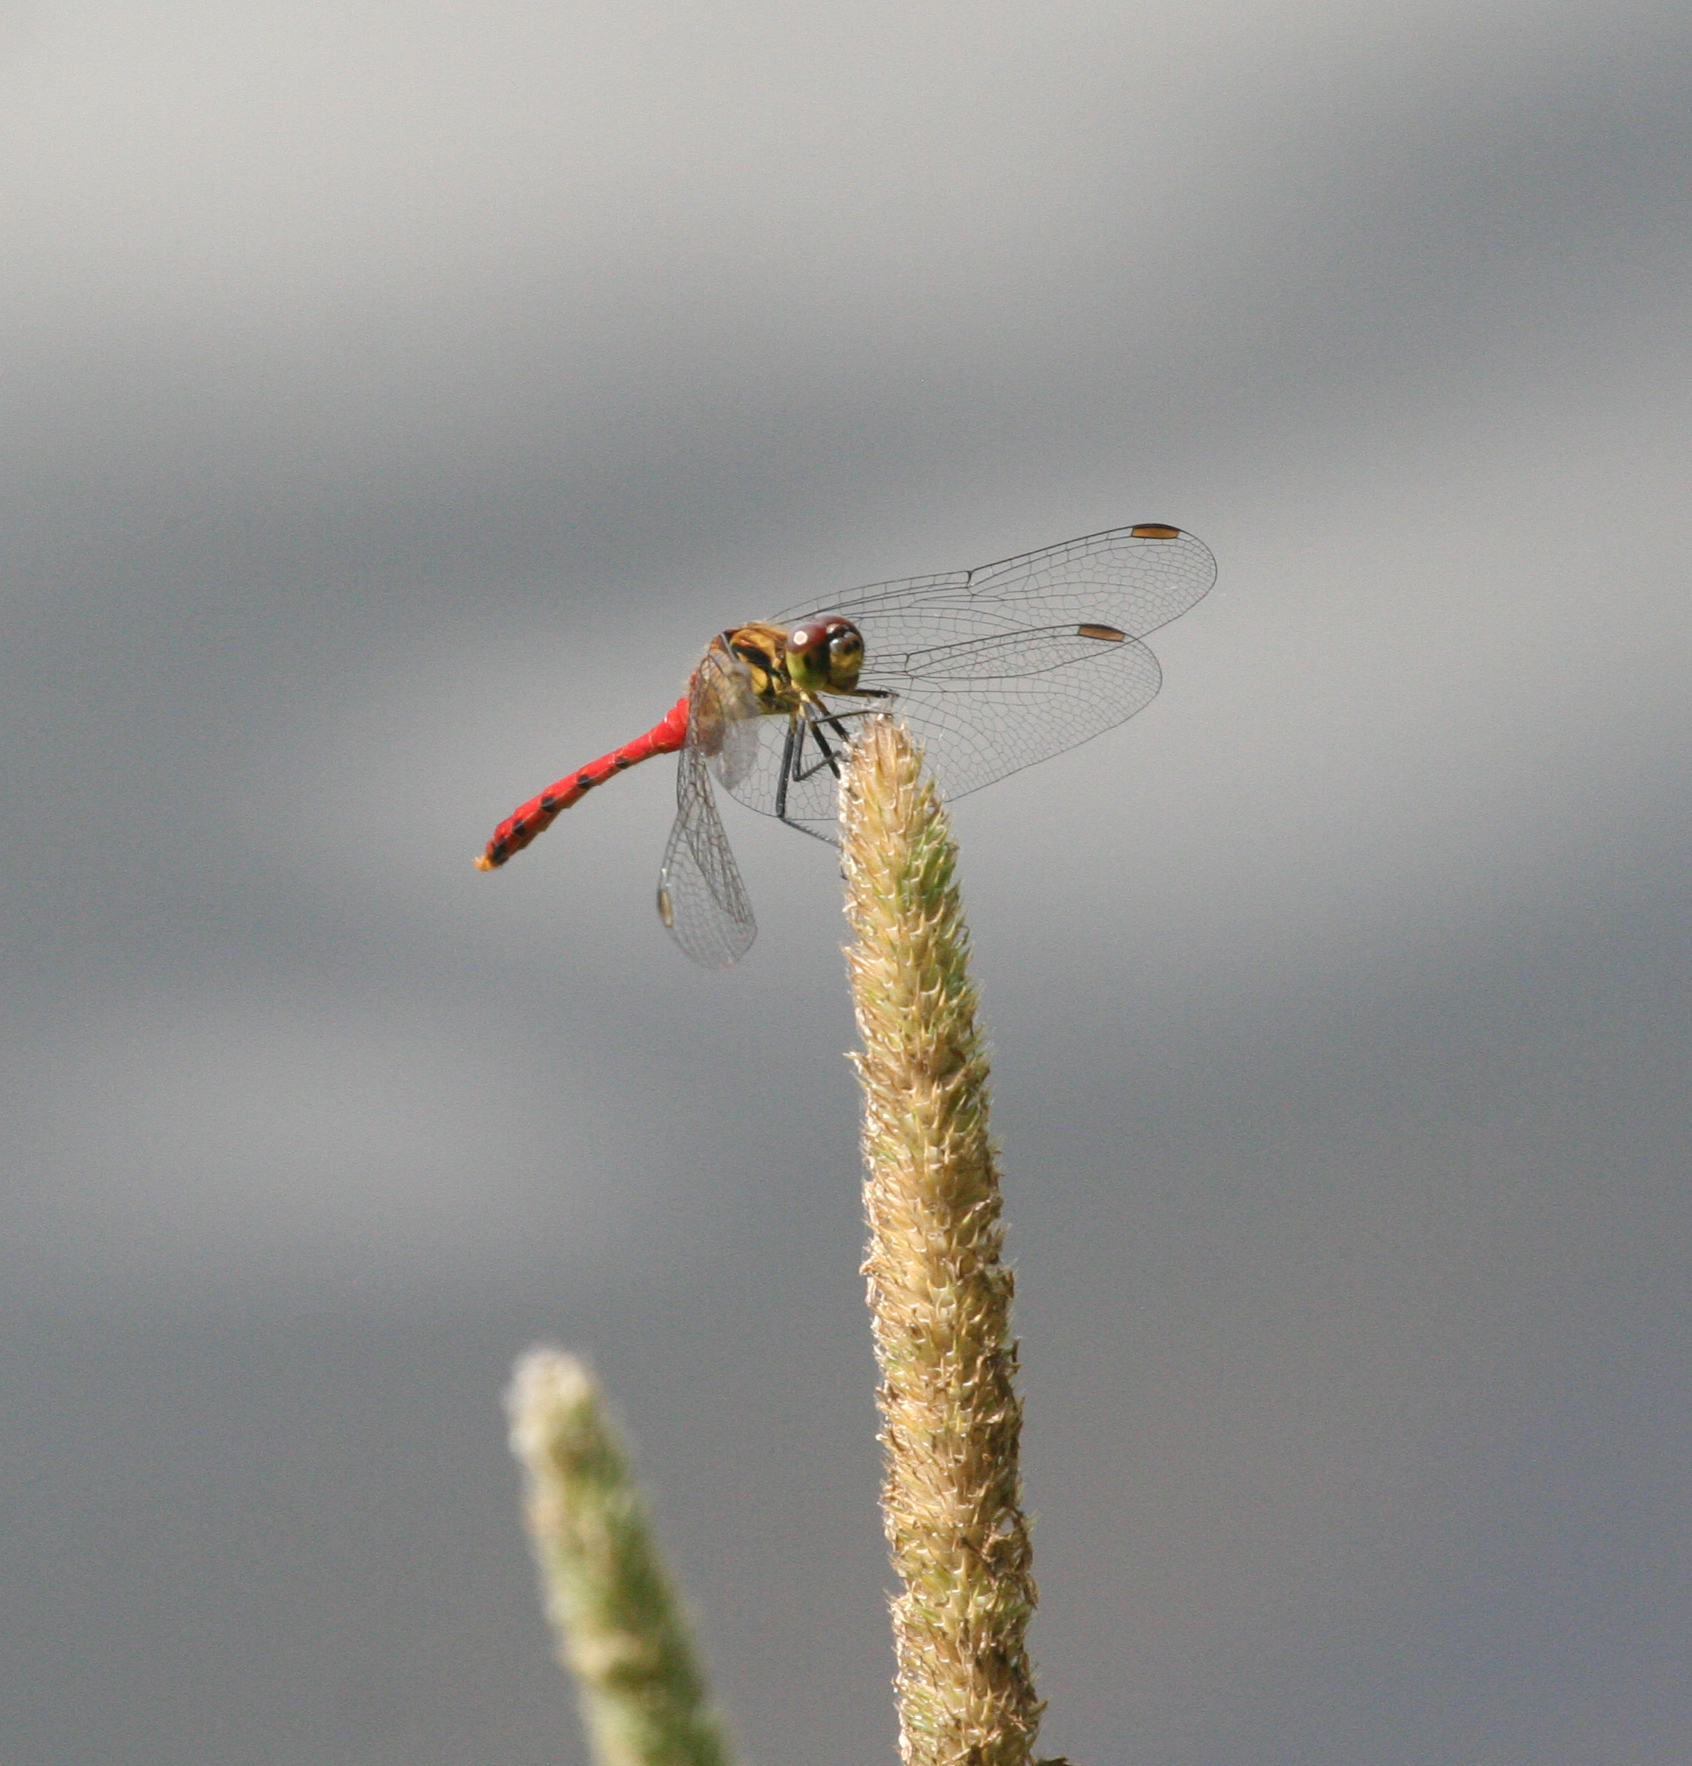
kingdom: Animalia
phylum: Arthropoda
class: Insecta
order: Odonata
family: Libellulidae
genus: Sympetrum
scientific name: Sympetrum eroticum
